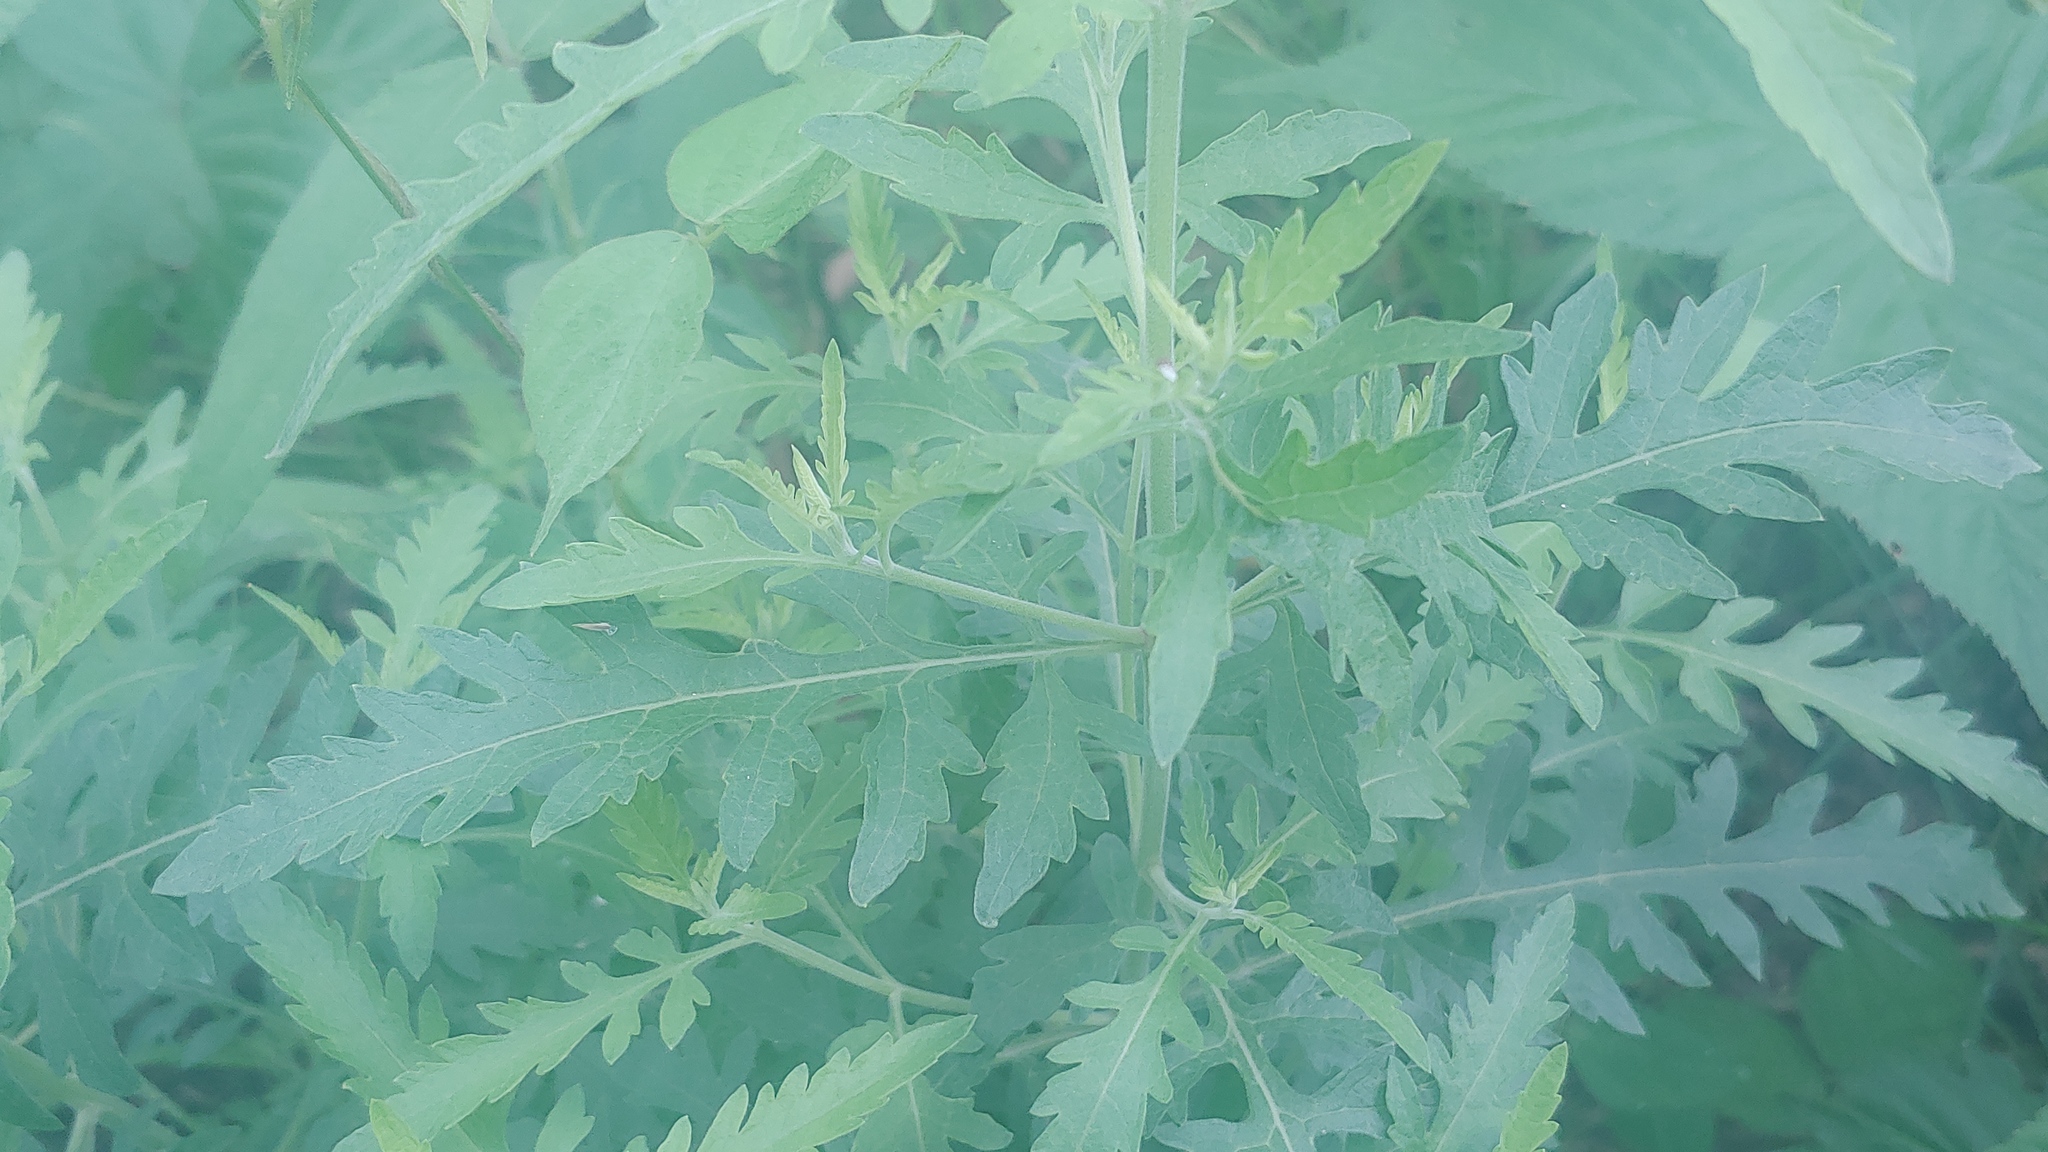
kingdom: Plantae
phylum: Tracheophyta
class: Magnoliopsida
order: Lamiales
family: Orobanchaceae
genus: Aureolaria
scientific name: Aureolaria grandiflora
